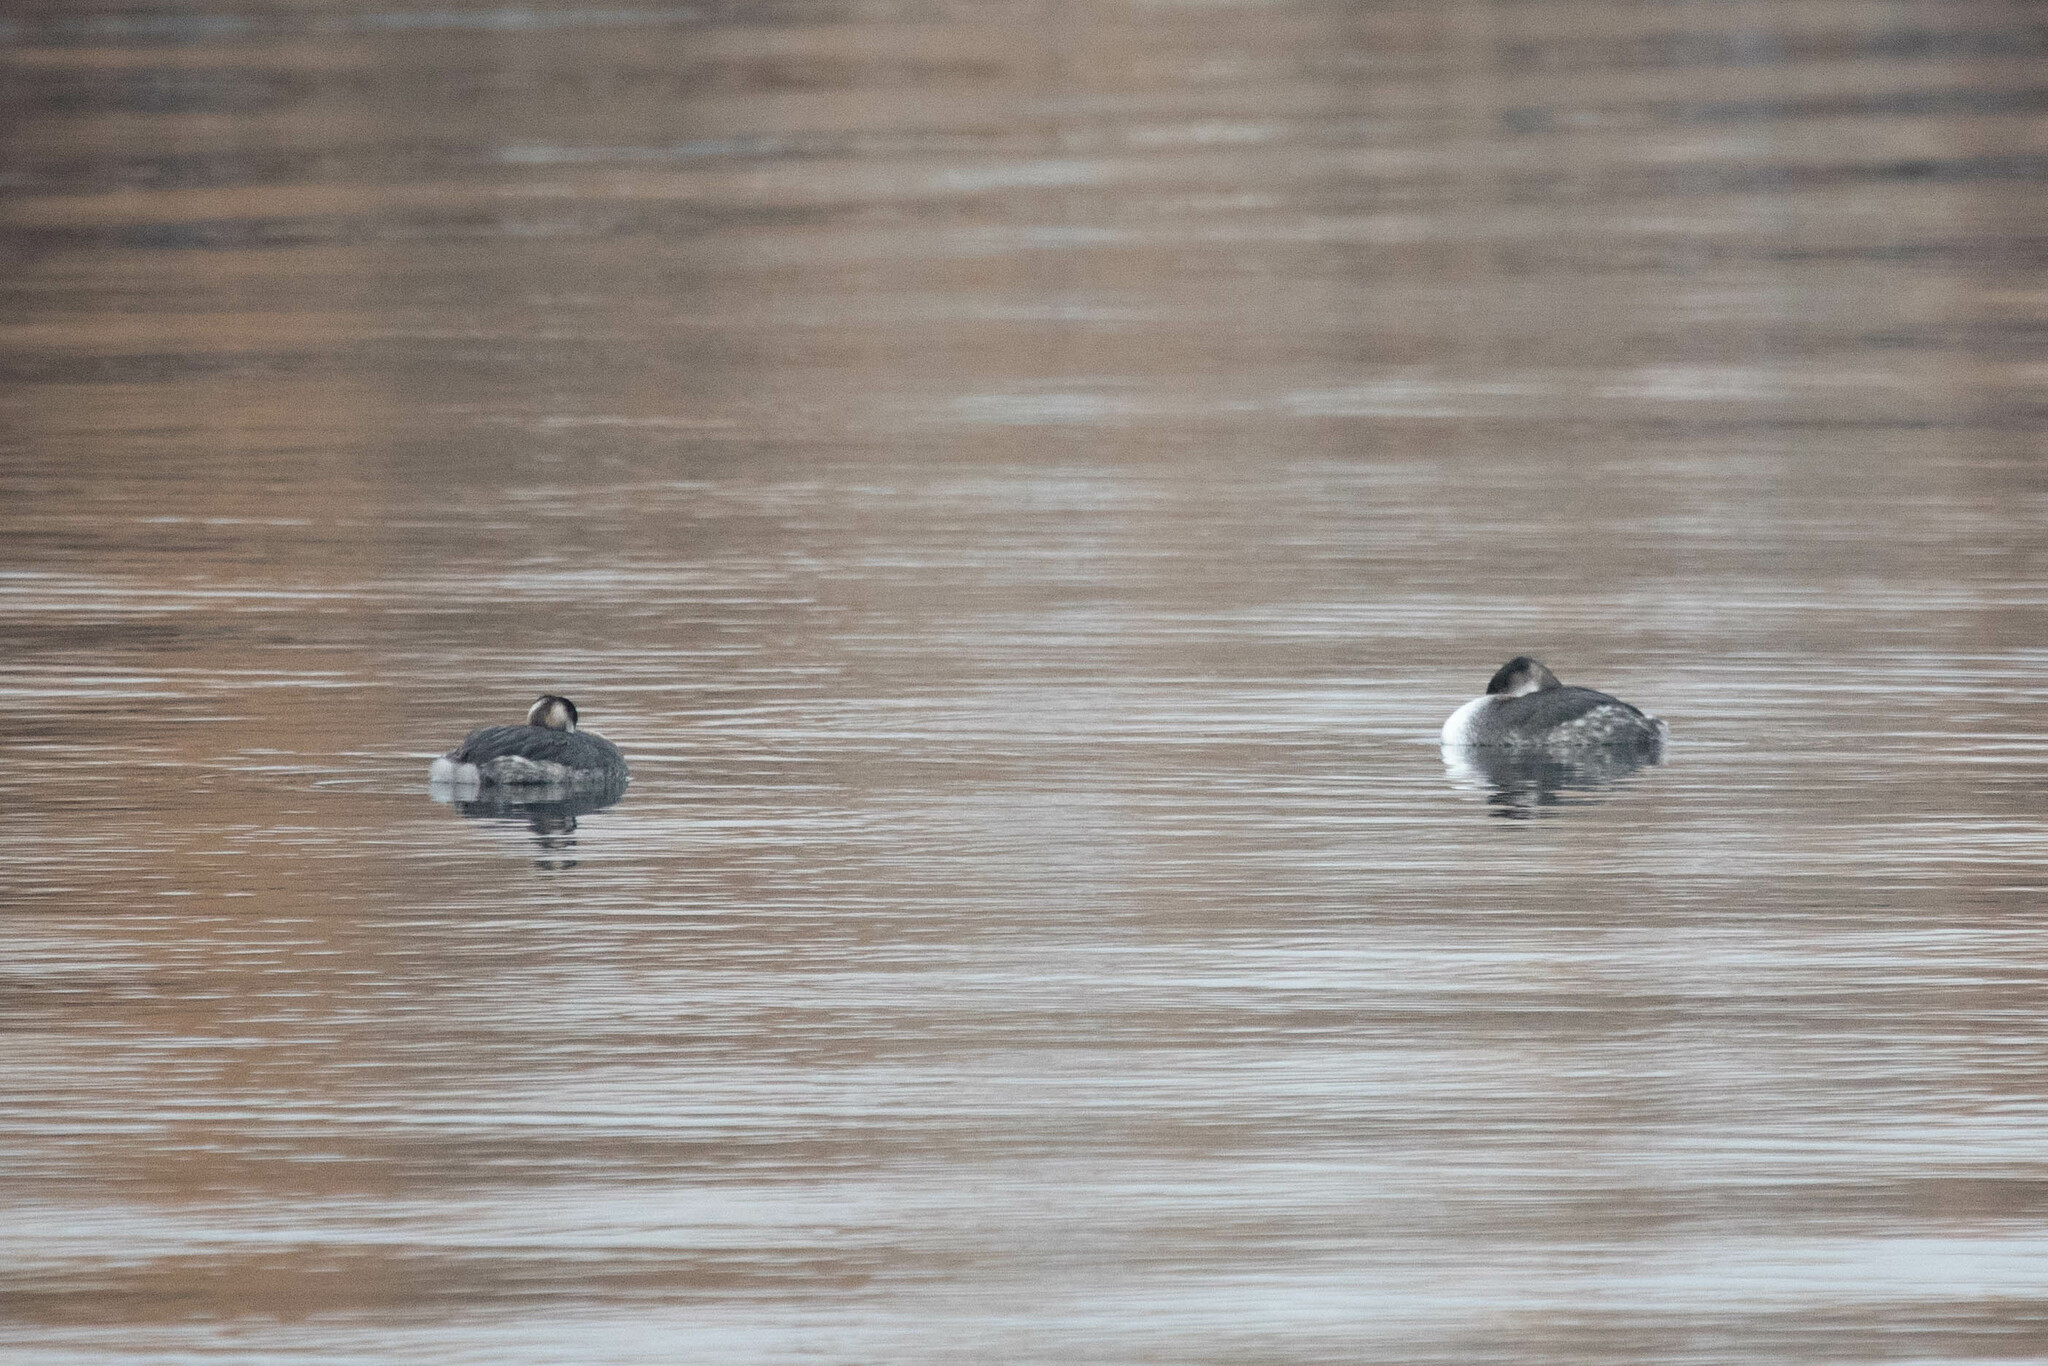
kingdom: Animalia
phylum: Chordata
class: Aves
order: Podicipediformes
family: Podicipedidae
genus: Podiceps
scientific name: Podiceps grisegena
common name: Red-necked grebe
